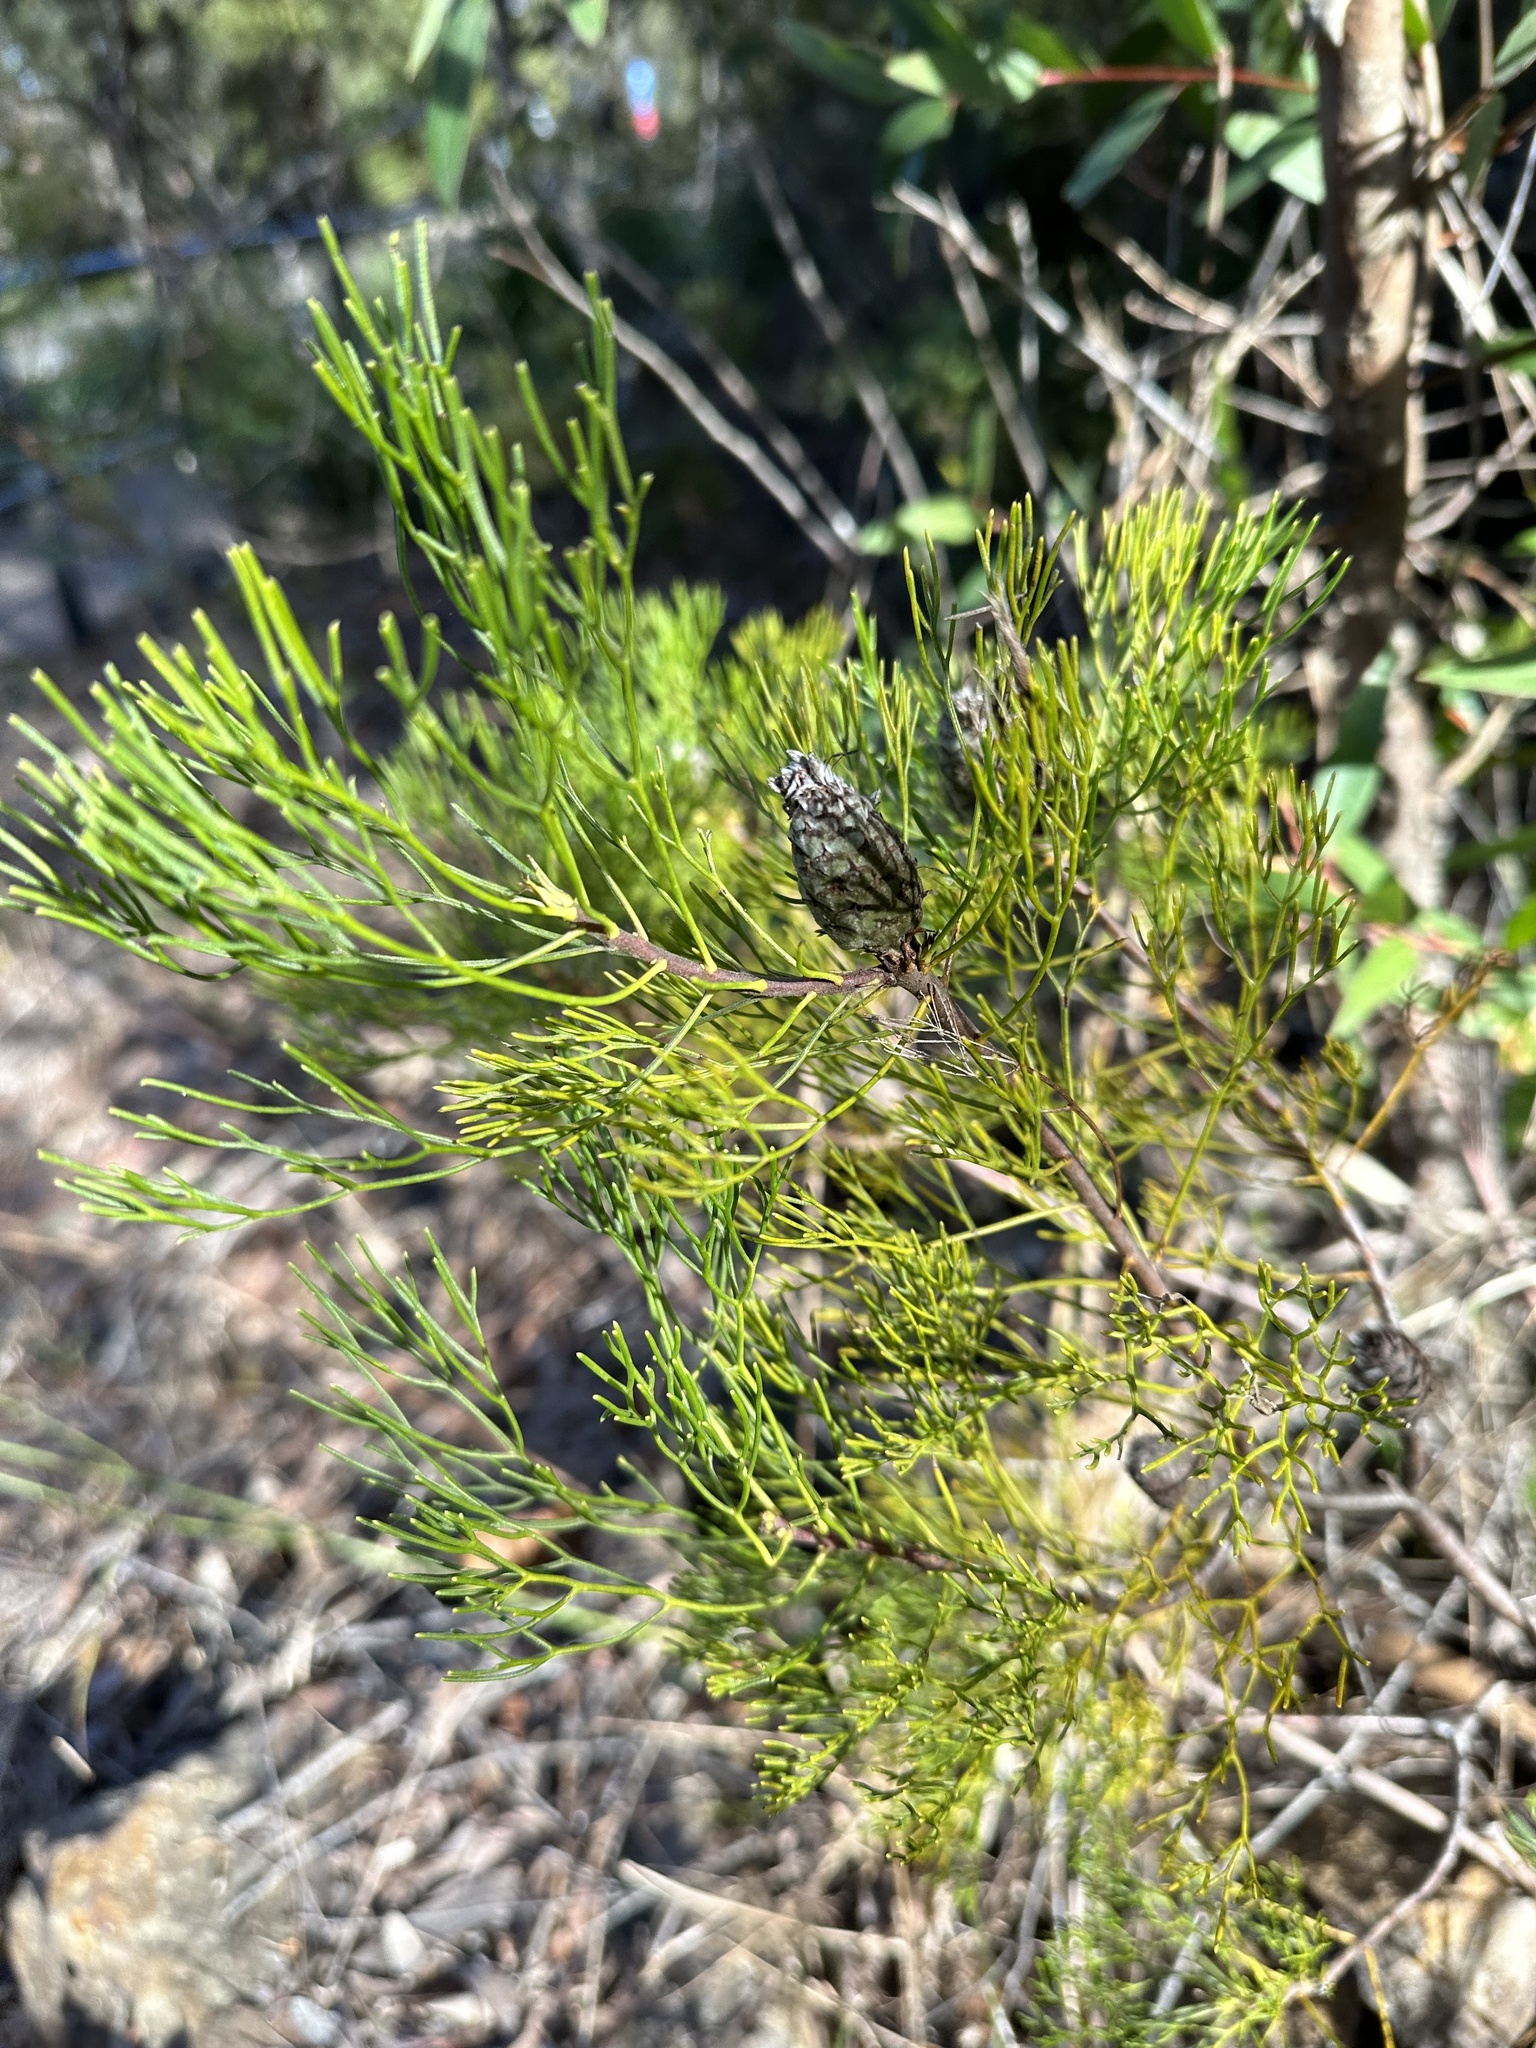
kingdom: Plantae
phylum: Tracheophyta
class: Magnoliopsida
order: Proteales
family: Proteaceae
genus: Petrophile
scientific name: Petrophile pulchella
